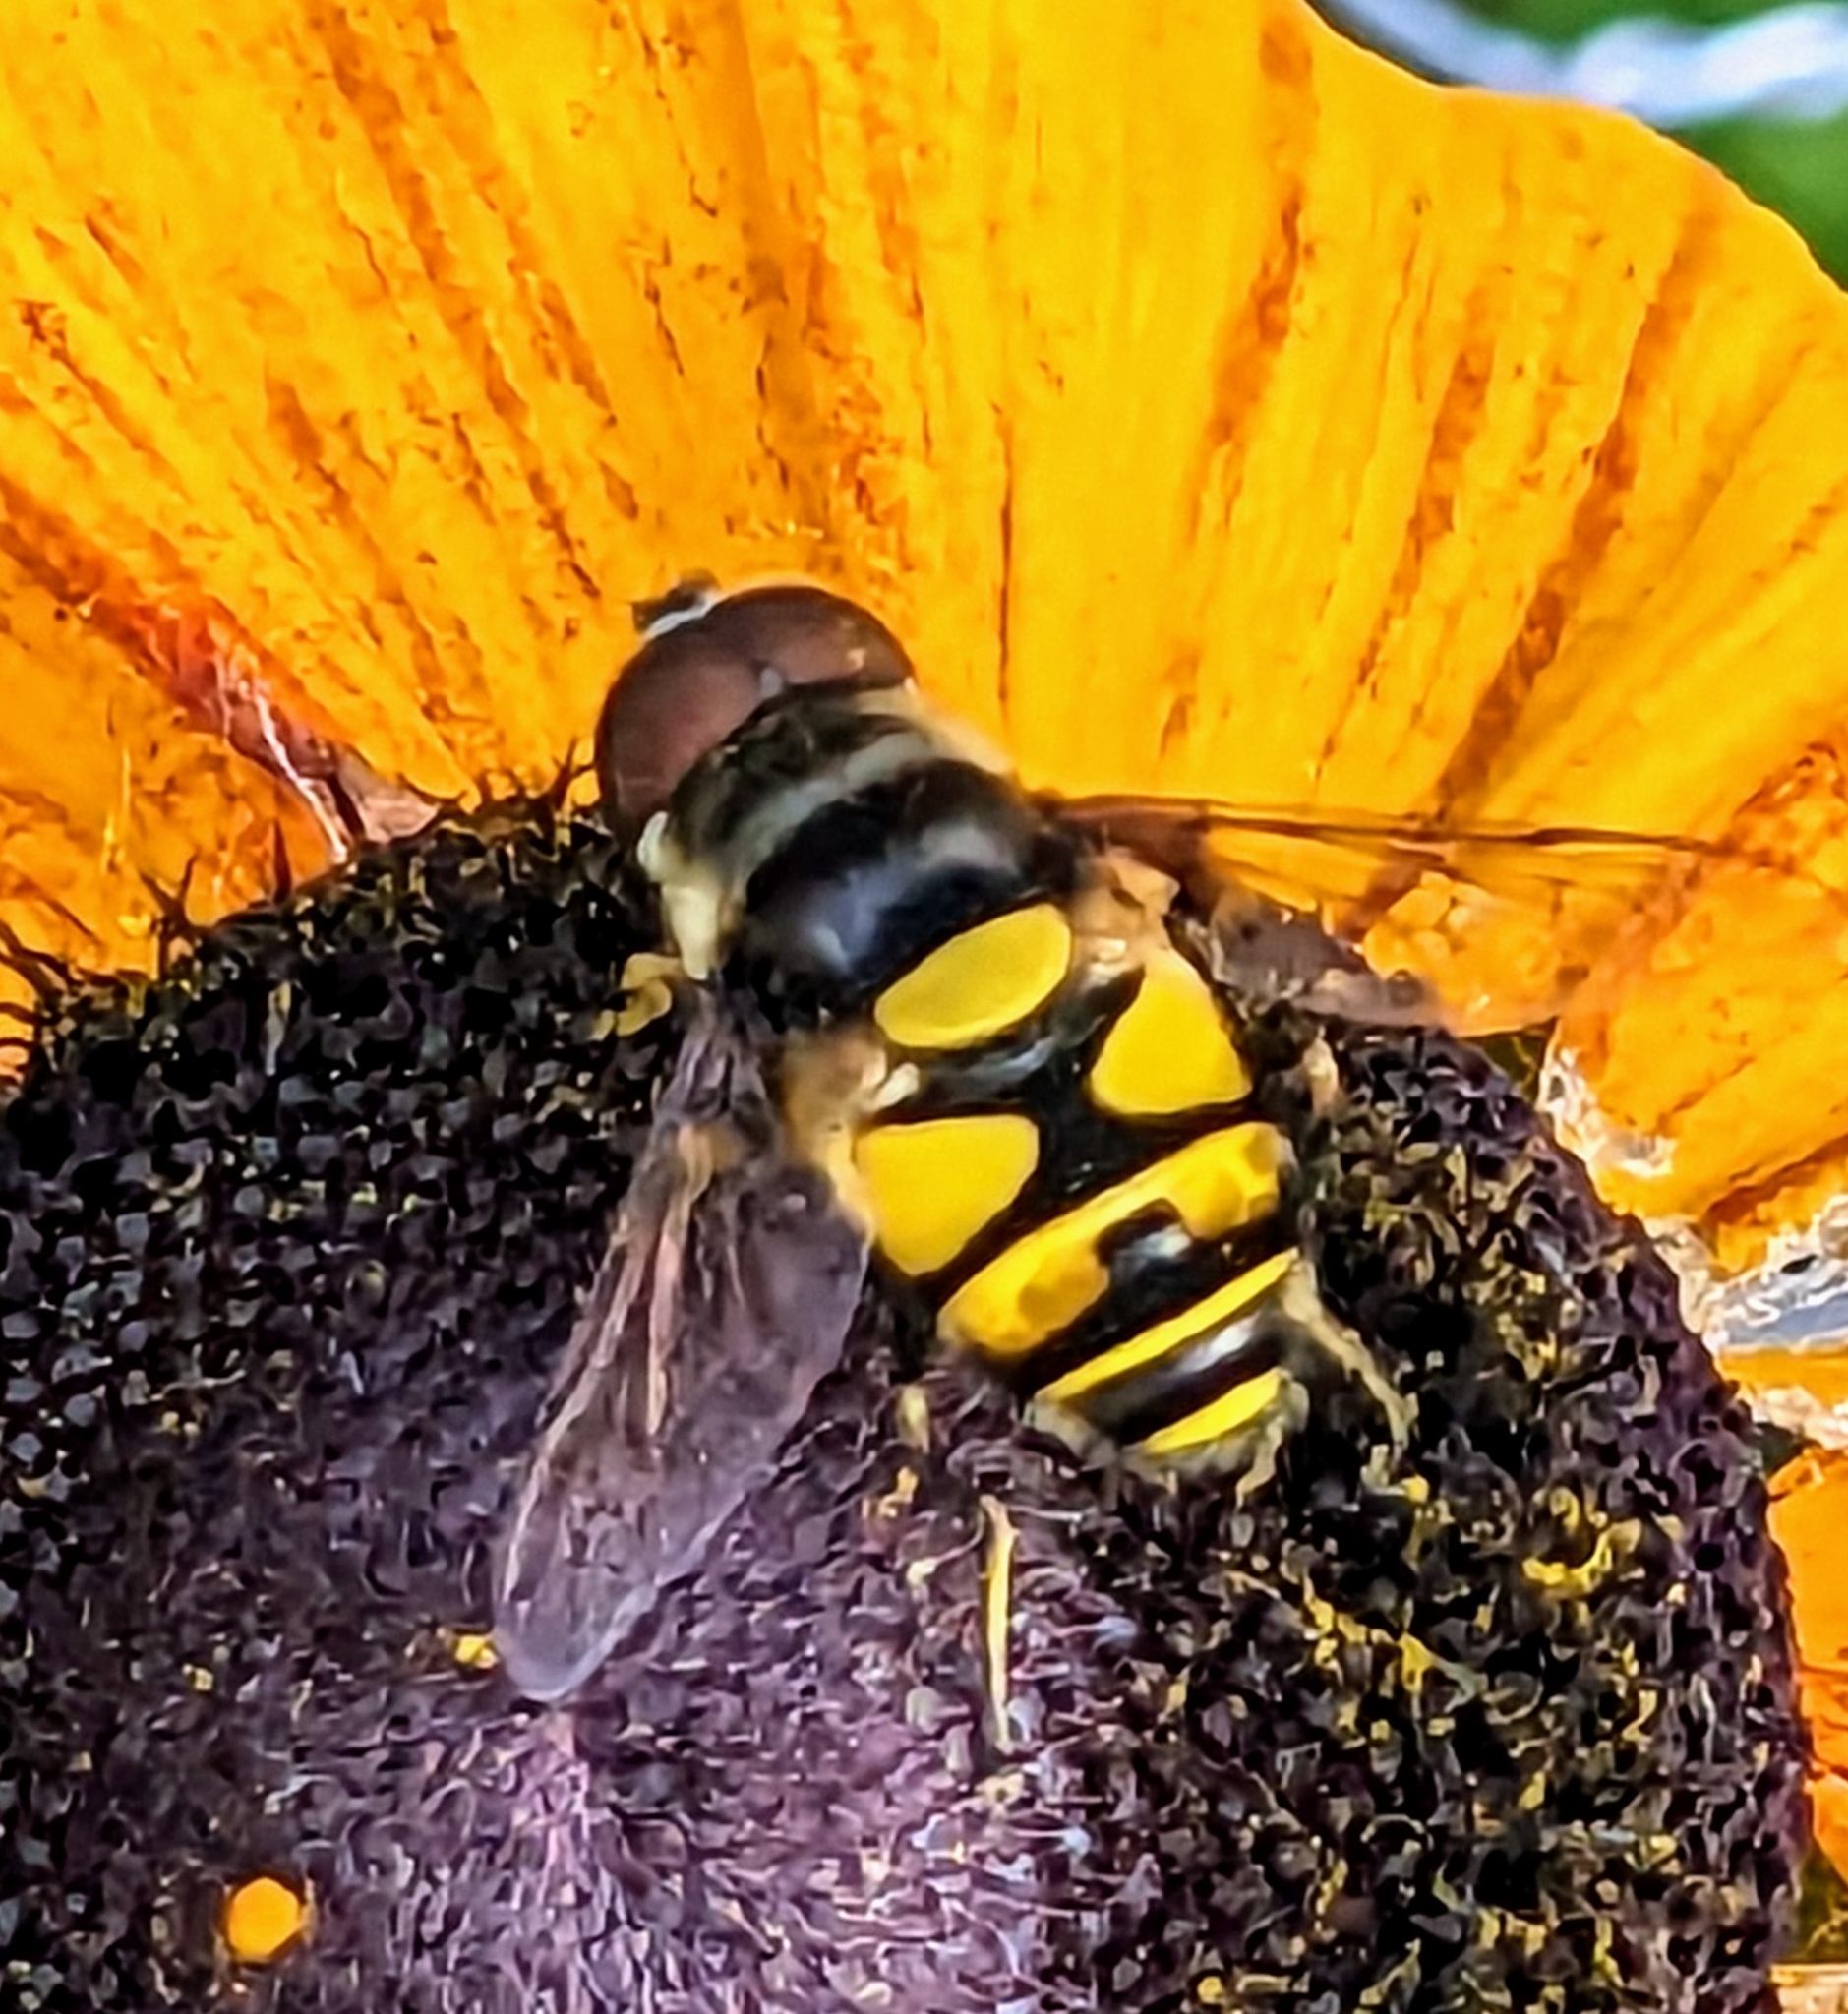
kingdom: Animalia
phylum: Arthropoda
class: Insecta
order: Diptera
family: Syrphidae
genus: Eristalis
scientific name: Eristalis transversa
